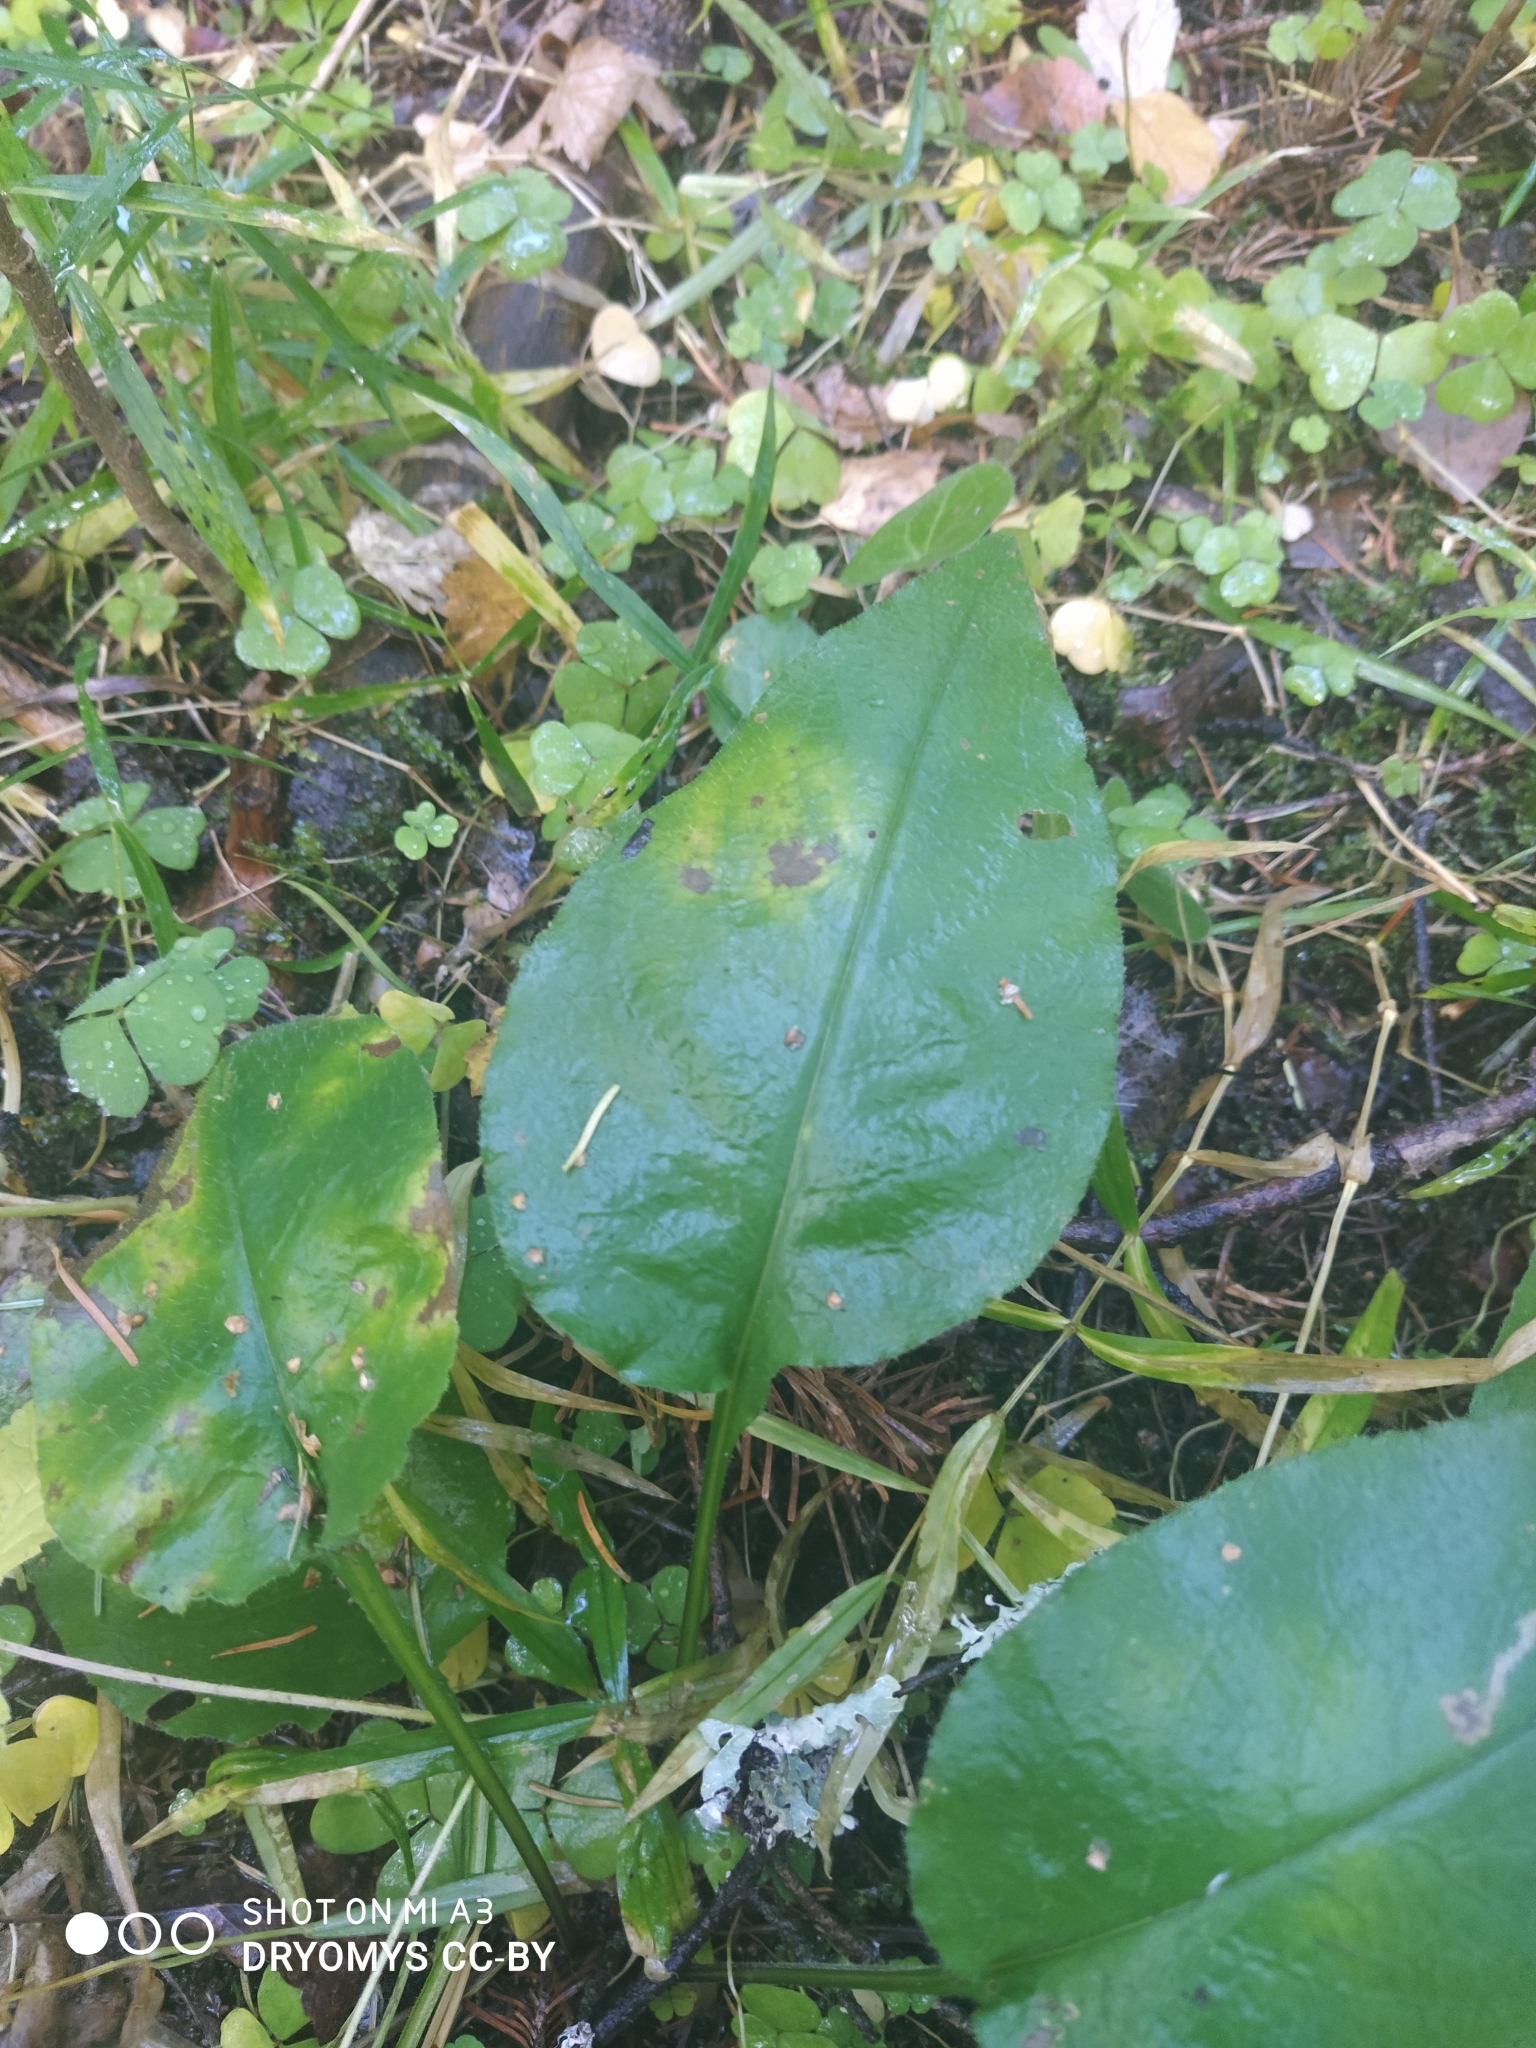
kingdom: Plantae
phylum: Tracheophyta
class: Magnoliopsida
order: Boraginales
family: Boraginaceae
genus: Pulmonaria
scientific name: Pulmonaria obscura
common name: Suffolk lungwort
